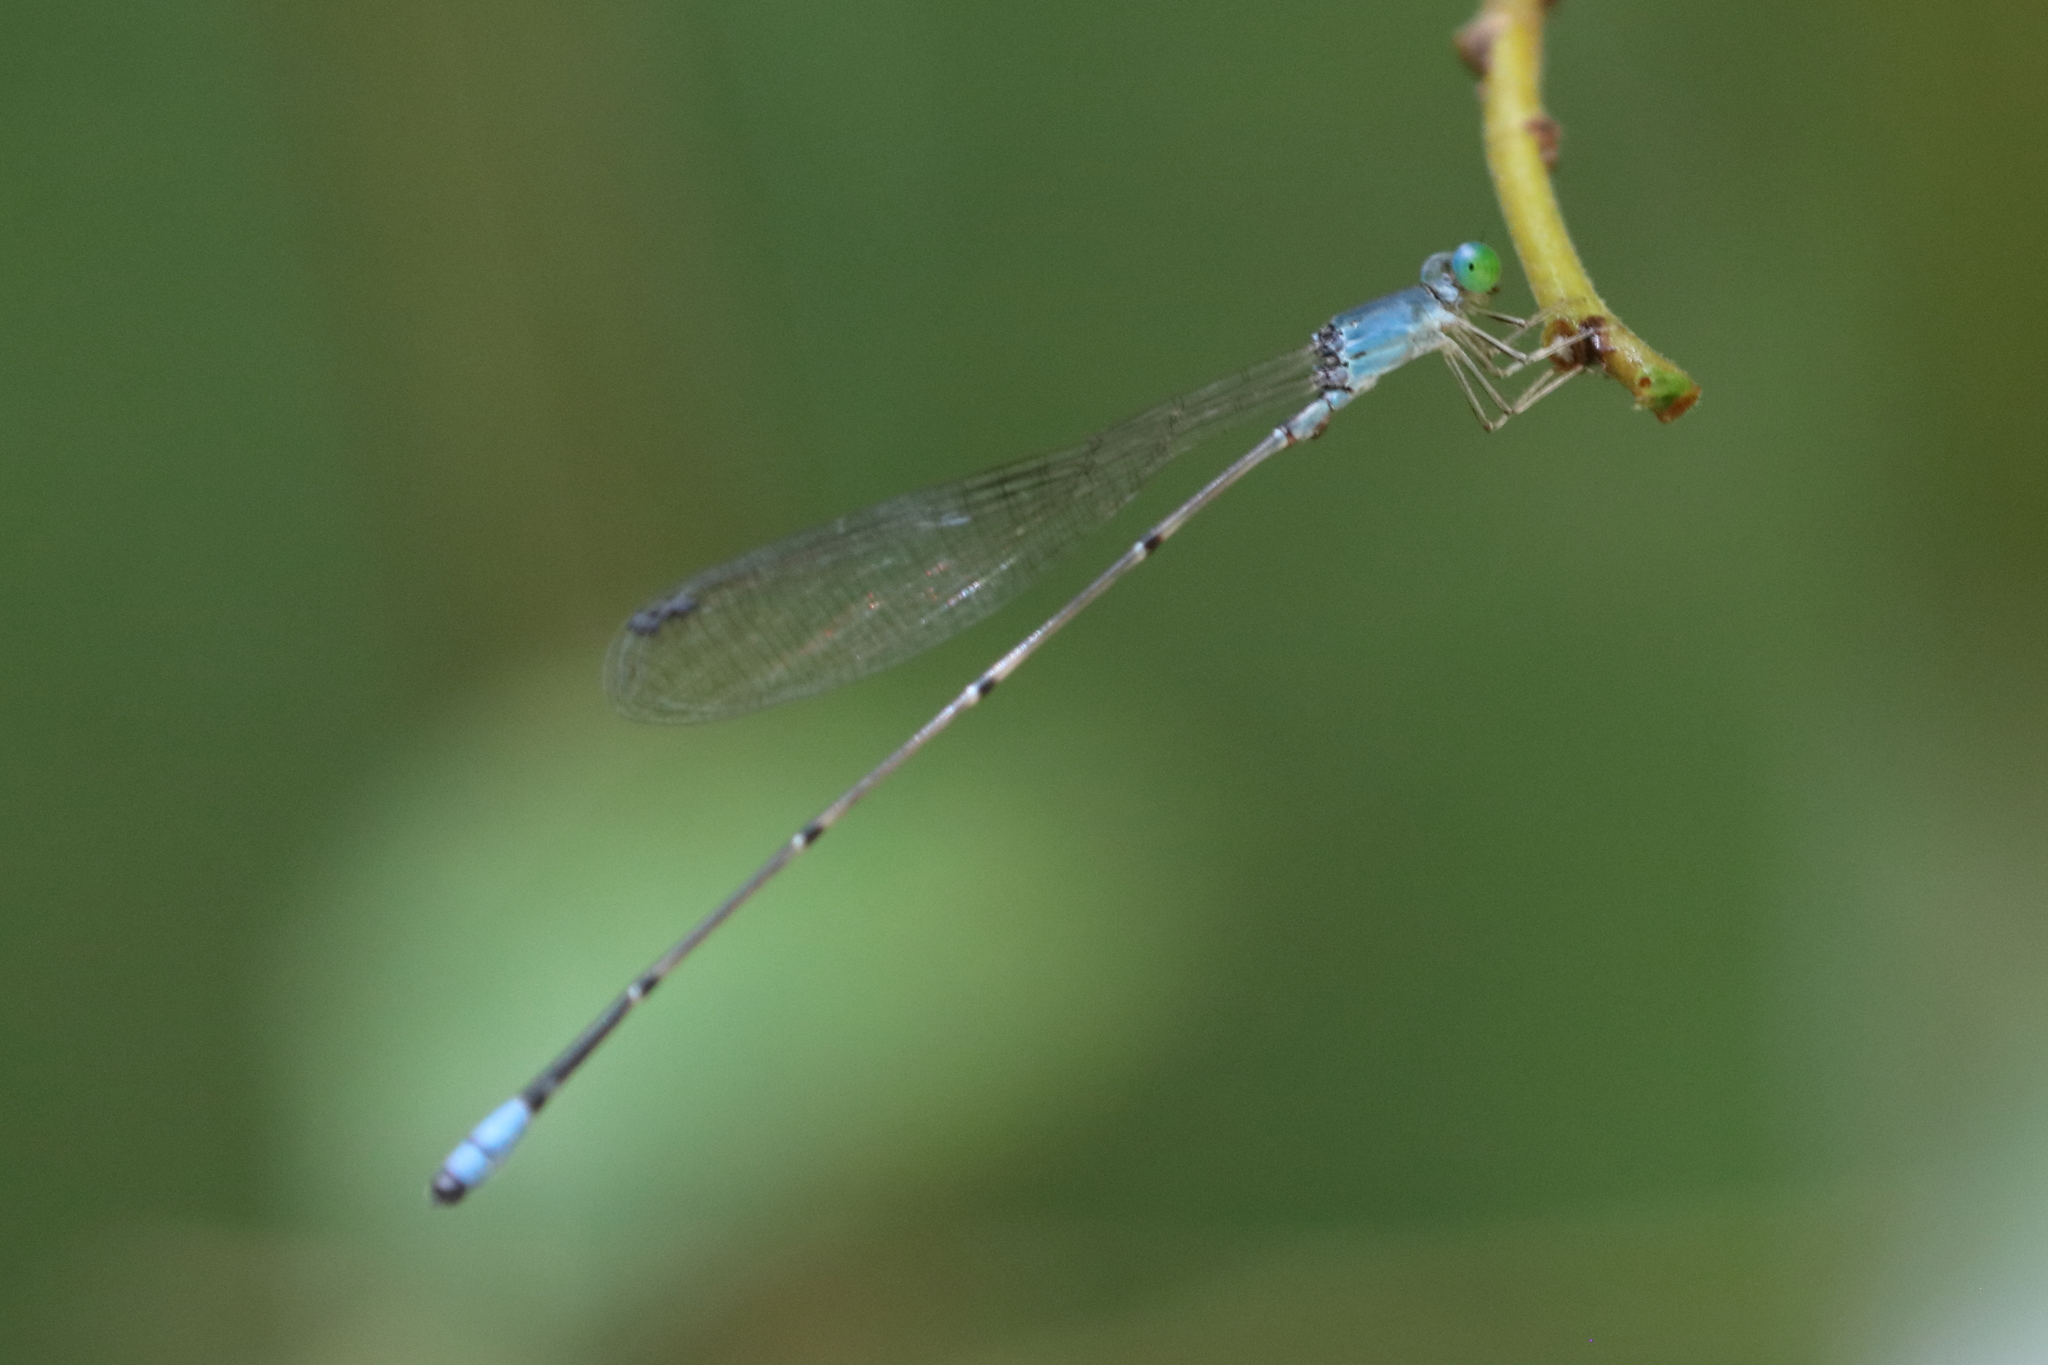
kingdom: Animalia
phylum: Arthropoda
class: Insecta
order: Odonata
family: Coenagrionidae
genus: Teinobasis
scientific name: Teinobasis samaritis
